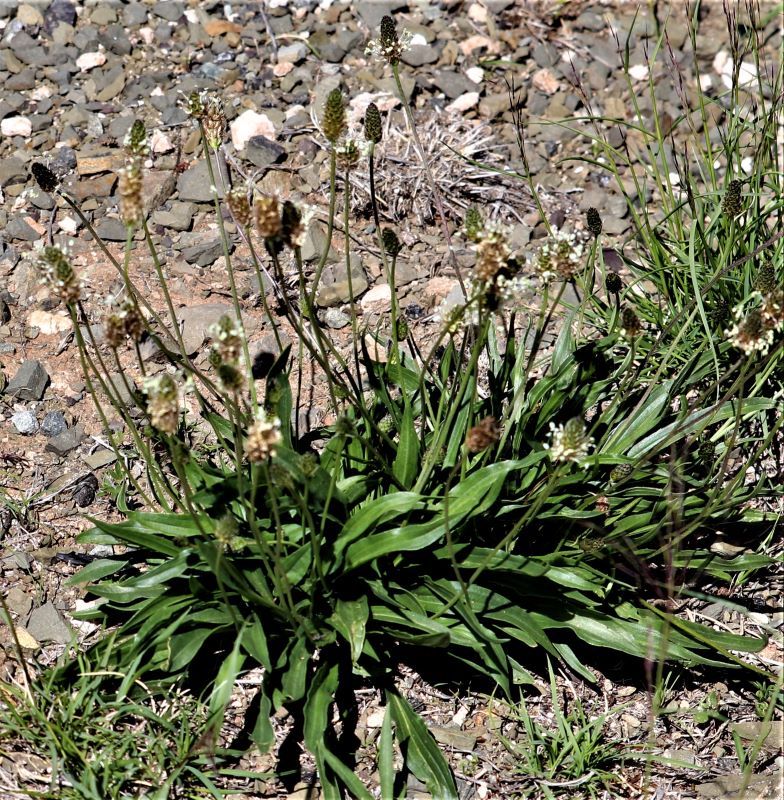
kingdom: Plantae
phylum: Tracheophyta
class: Magnoliopsida
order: Lamiales
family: Plantaginaceae
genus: Plantago
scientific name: Plantago lanceolata
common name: Ribwort plantain
